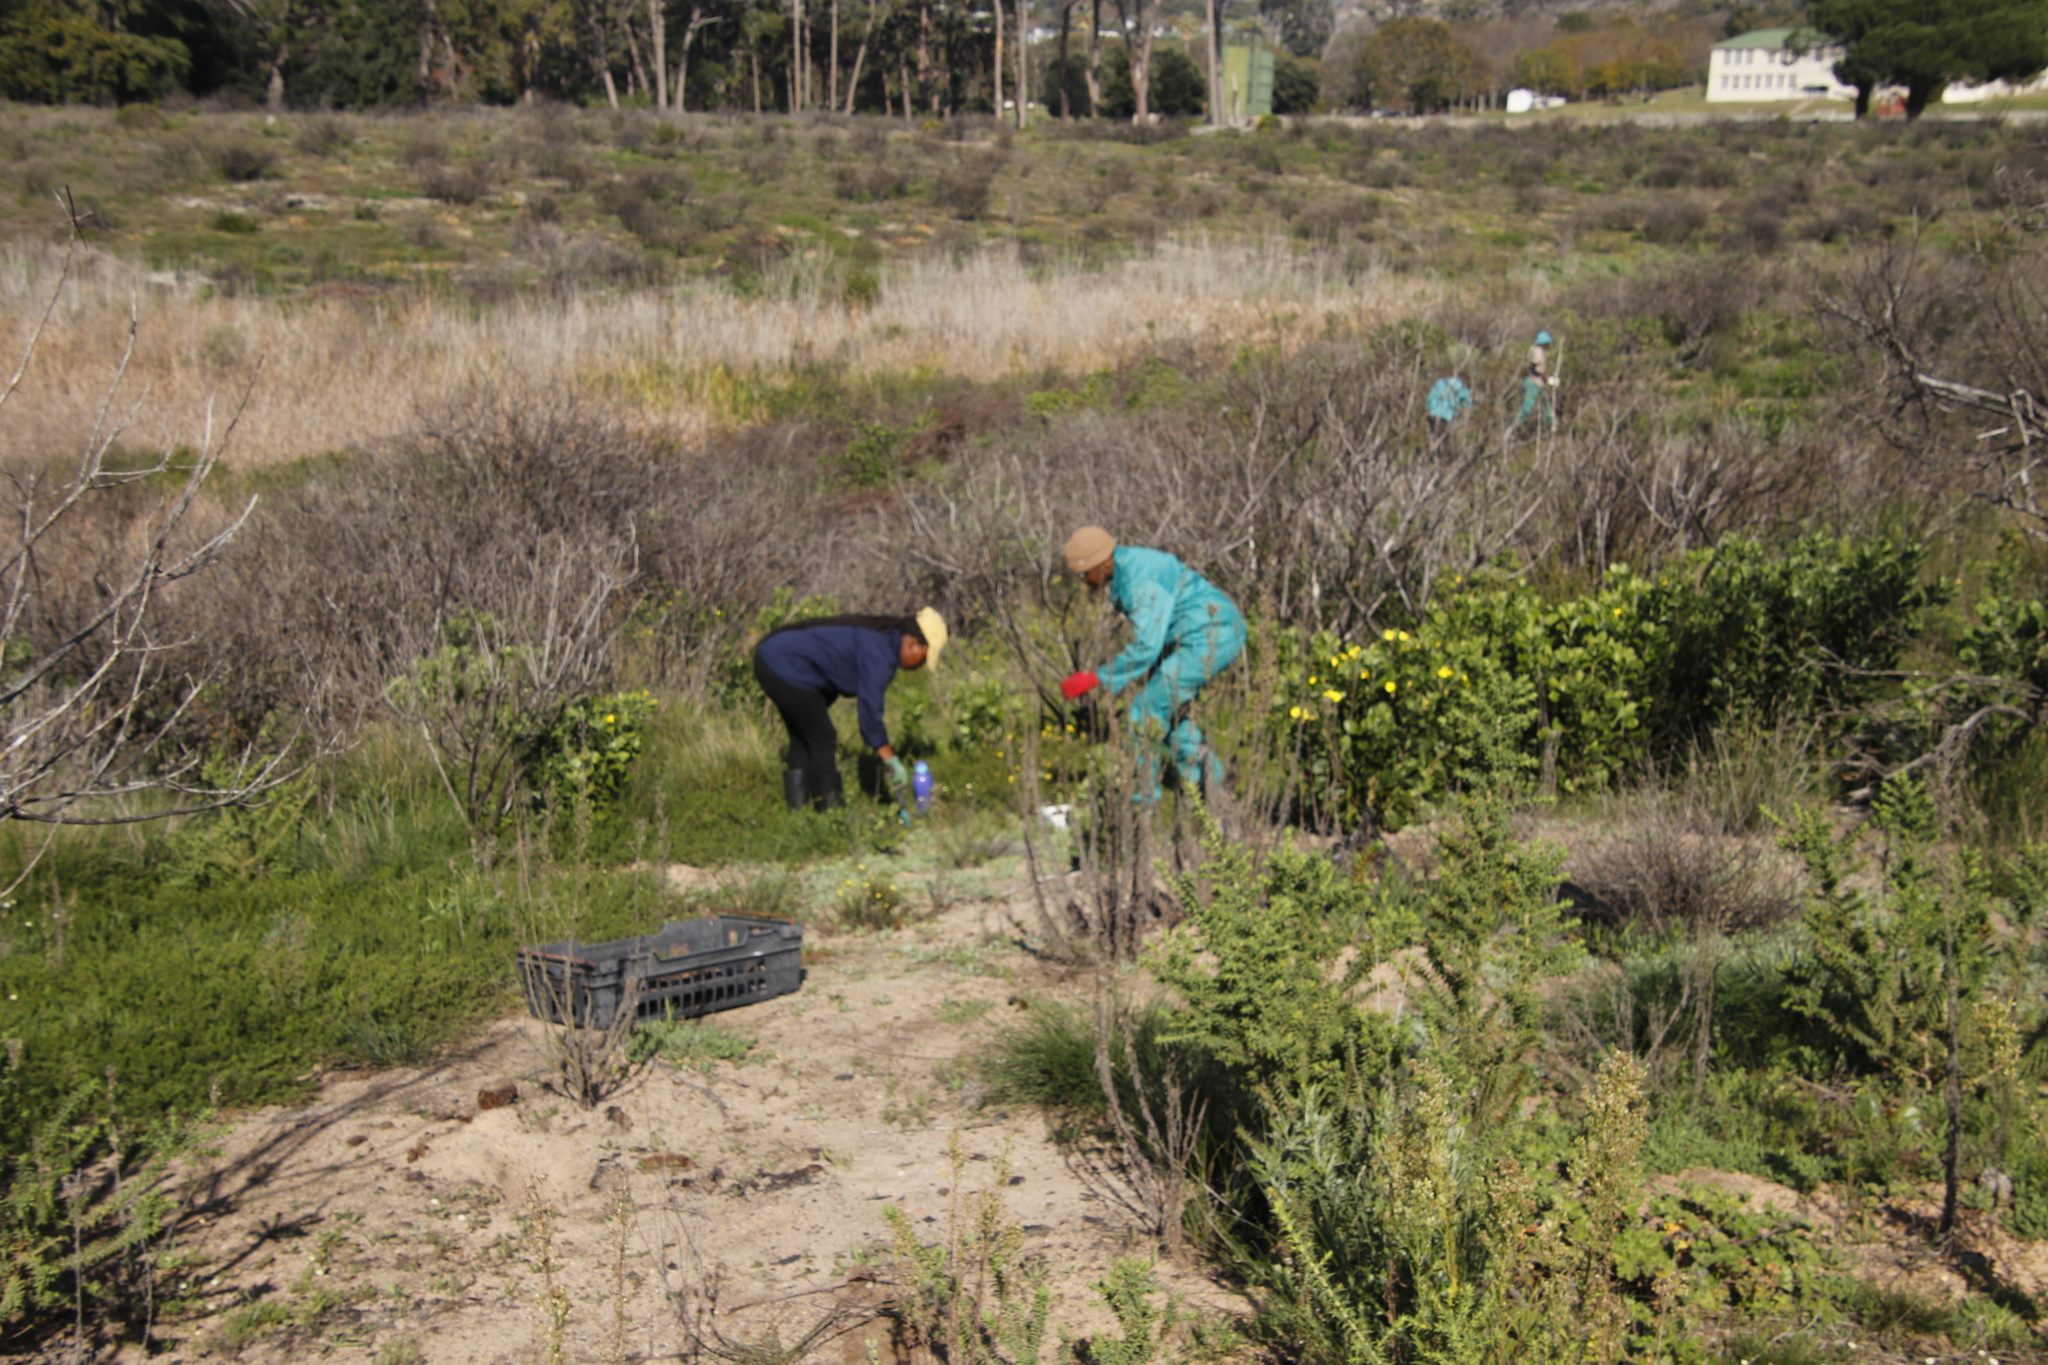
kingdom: Plantae
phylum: Tracheophyta
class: Magnoliopsida
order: Asterales
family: Asteraceae
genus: Osteospermum
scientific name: Osteospermum moniliferum
